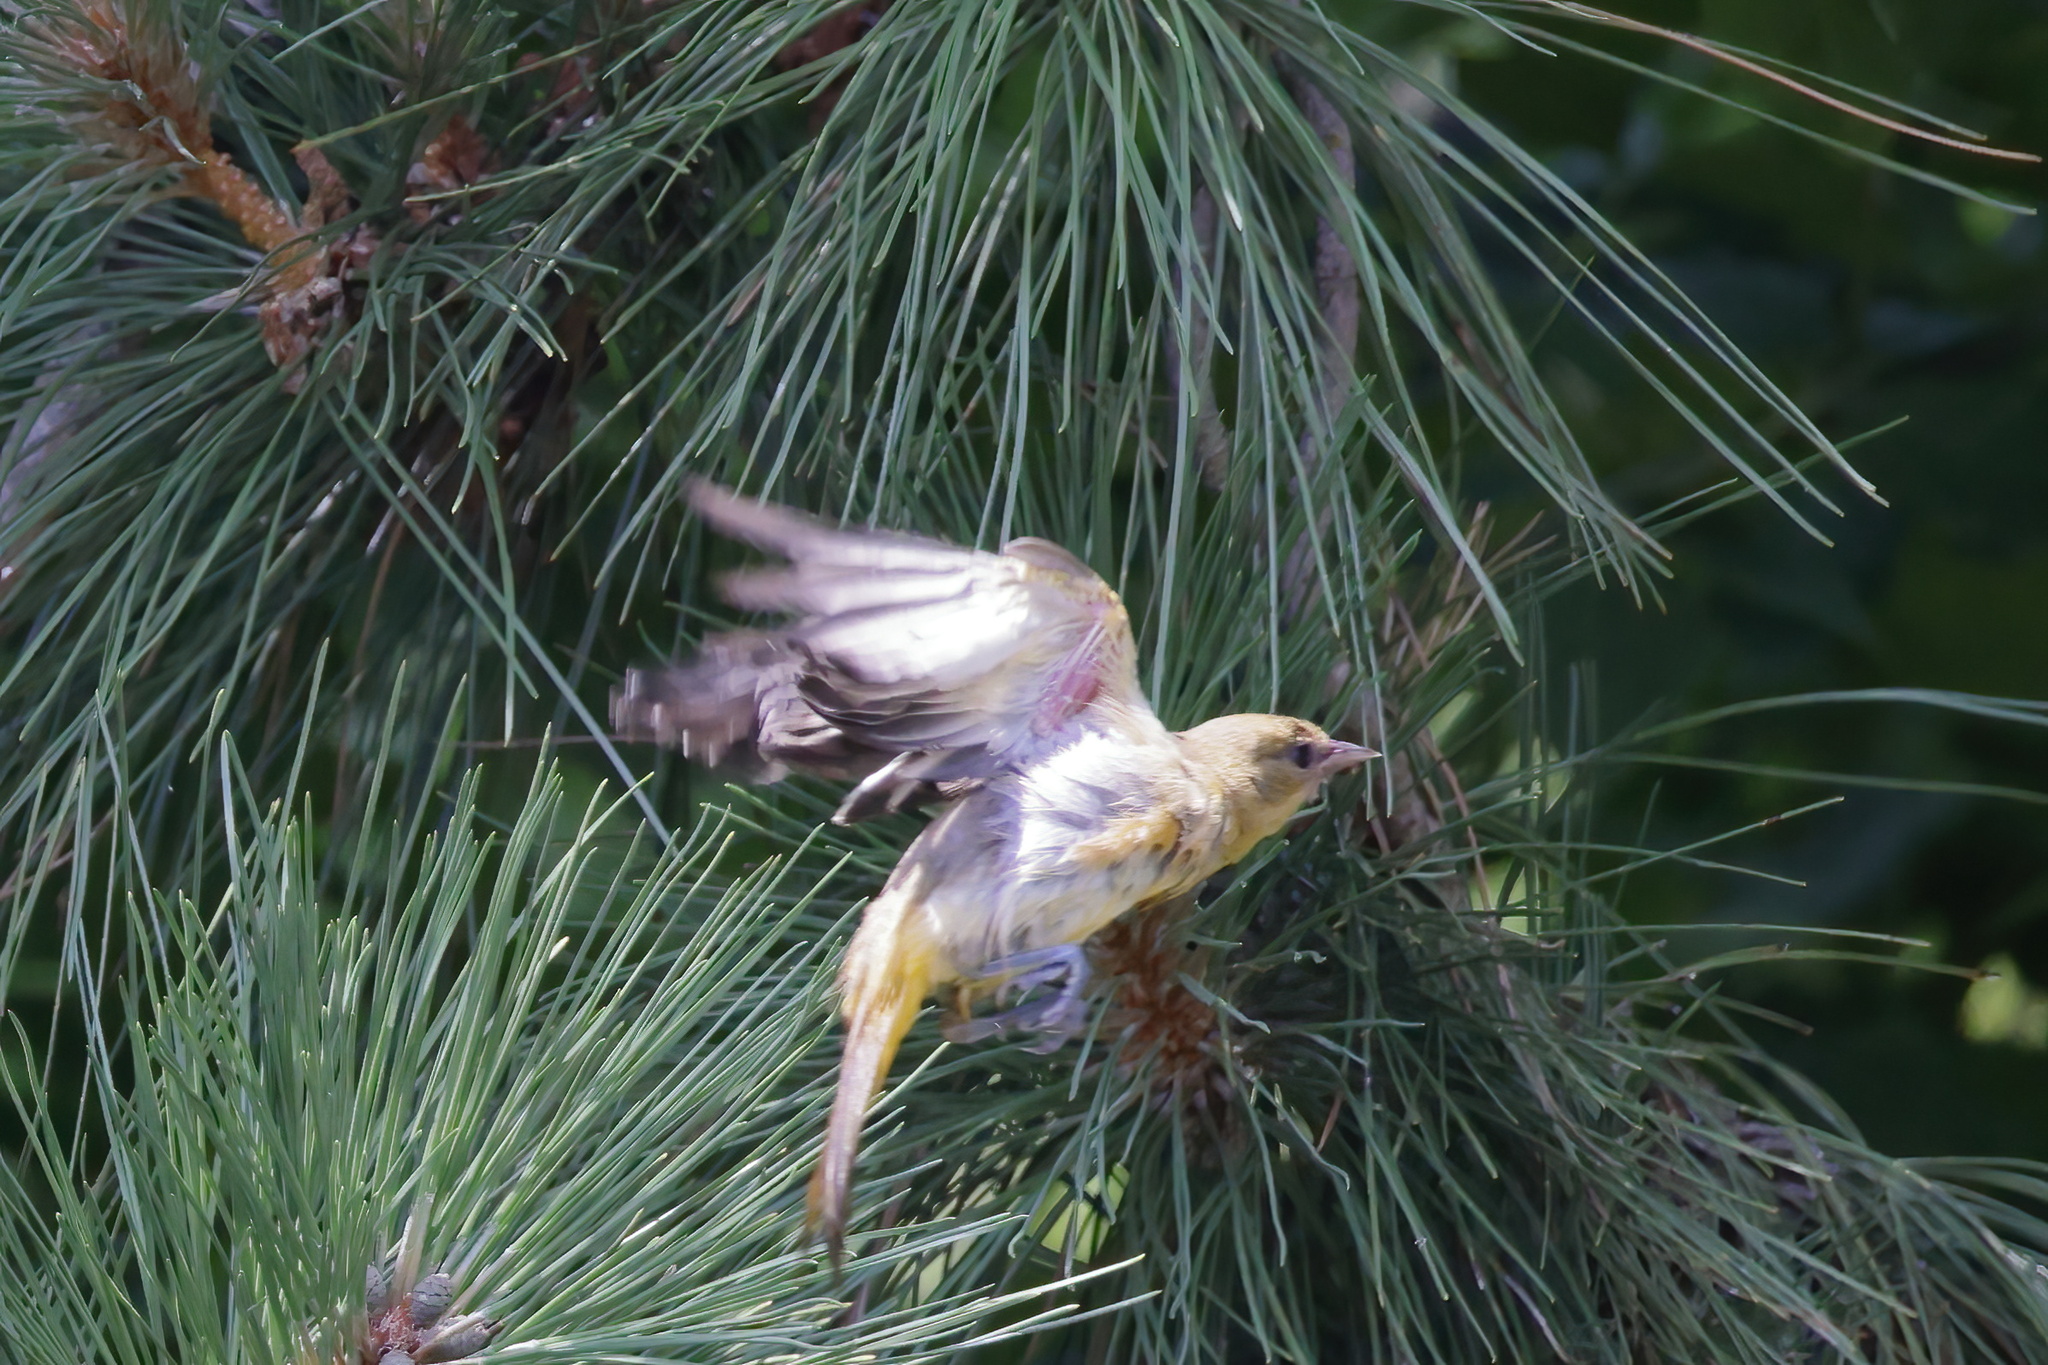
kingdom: Animalia
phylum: Chordata
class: Aves
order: Passeriformes
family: Icteridae
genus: Icterus
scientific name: Icterus galbula
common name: Baltimore oriole
